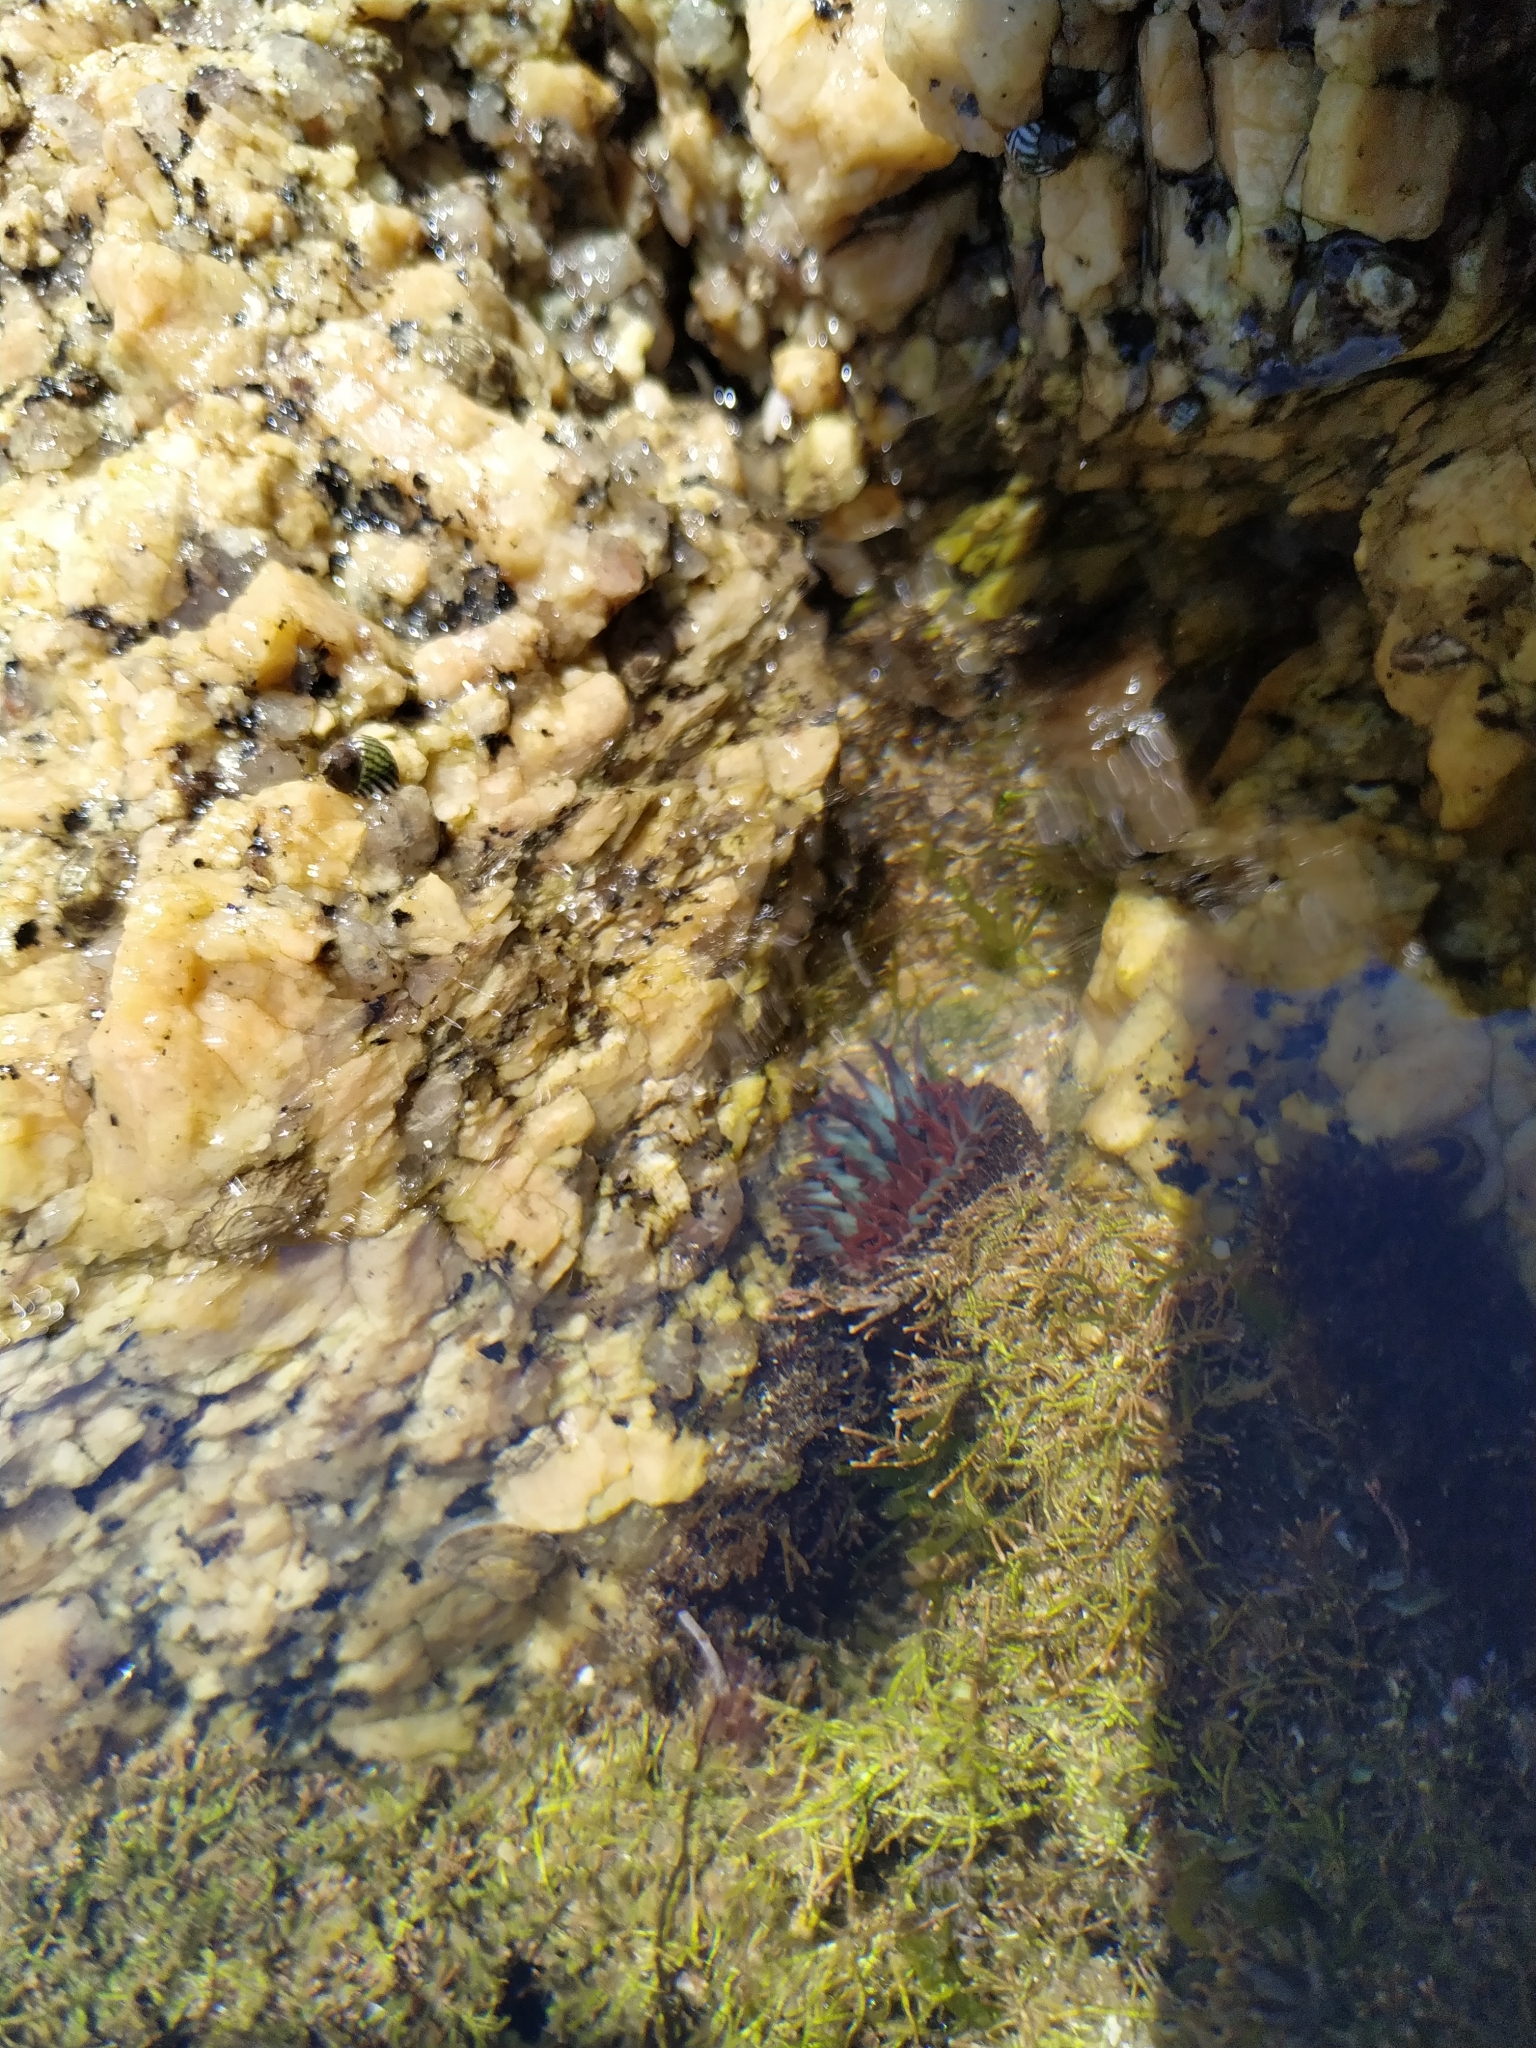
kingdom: Animalia
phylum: Cnidaria
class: Anthozoa
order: Actiniaria
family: Actiniidae
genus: Bunodosoma
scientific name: Bunodosoma cangicum
